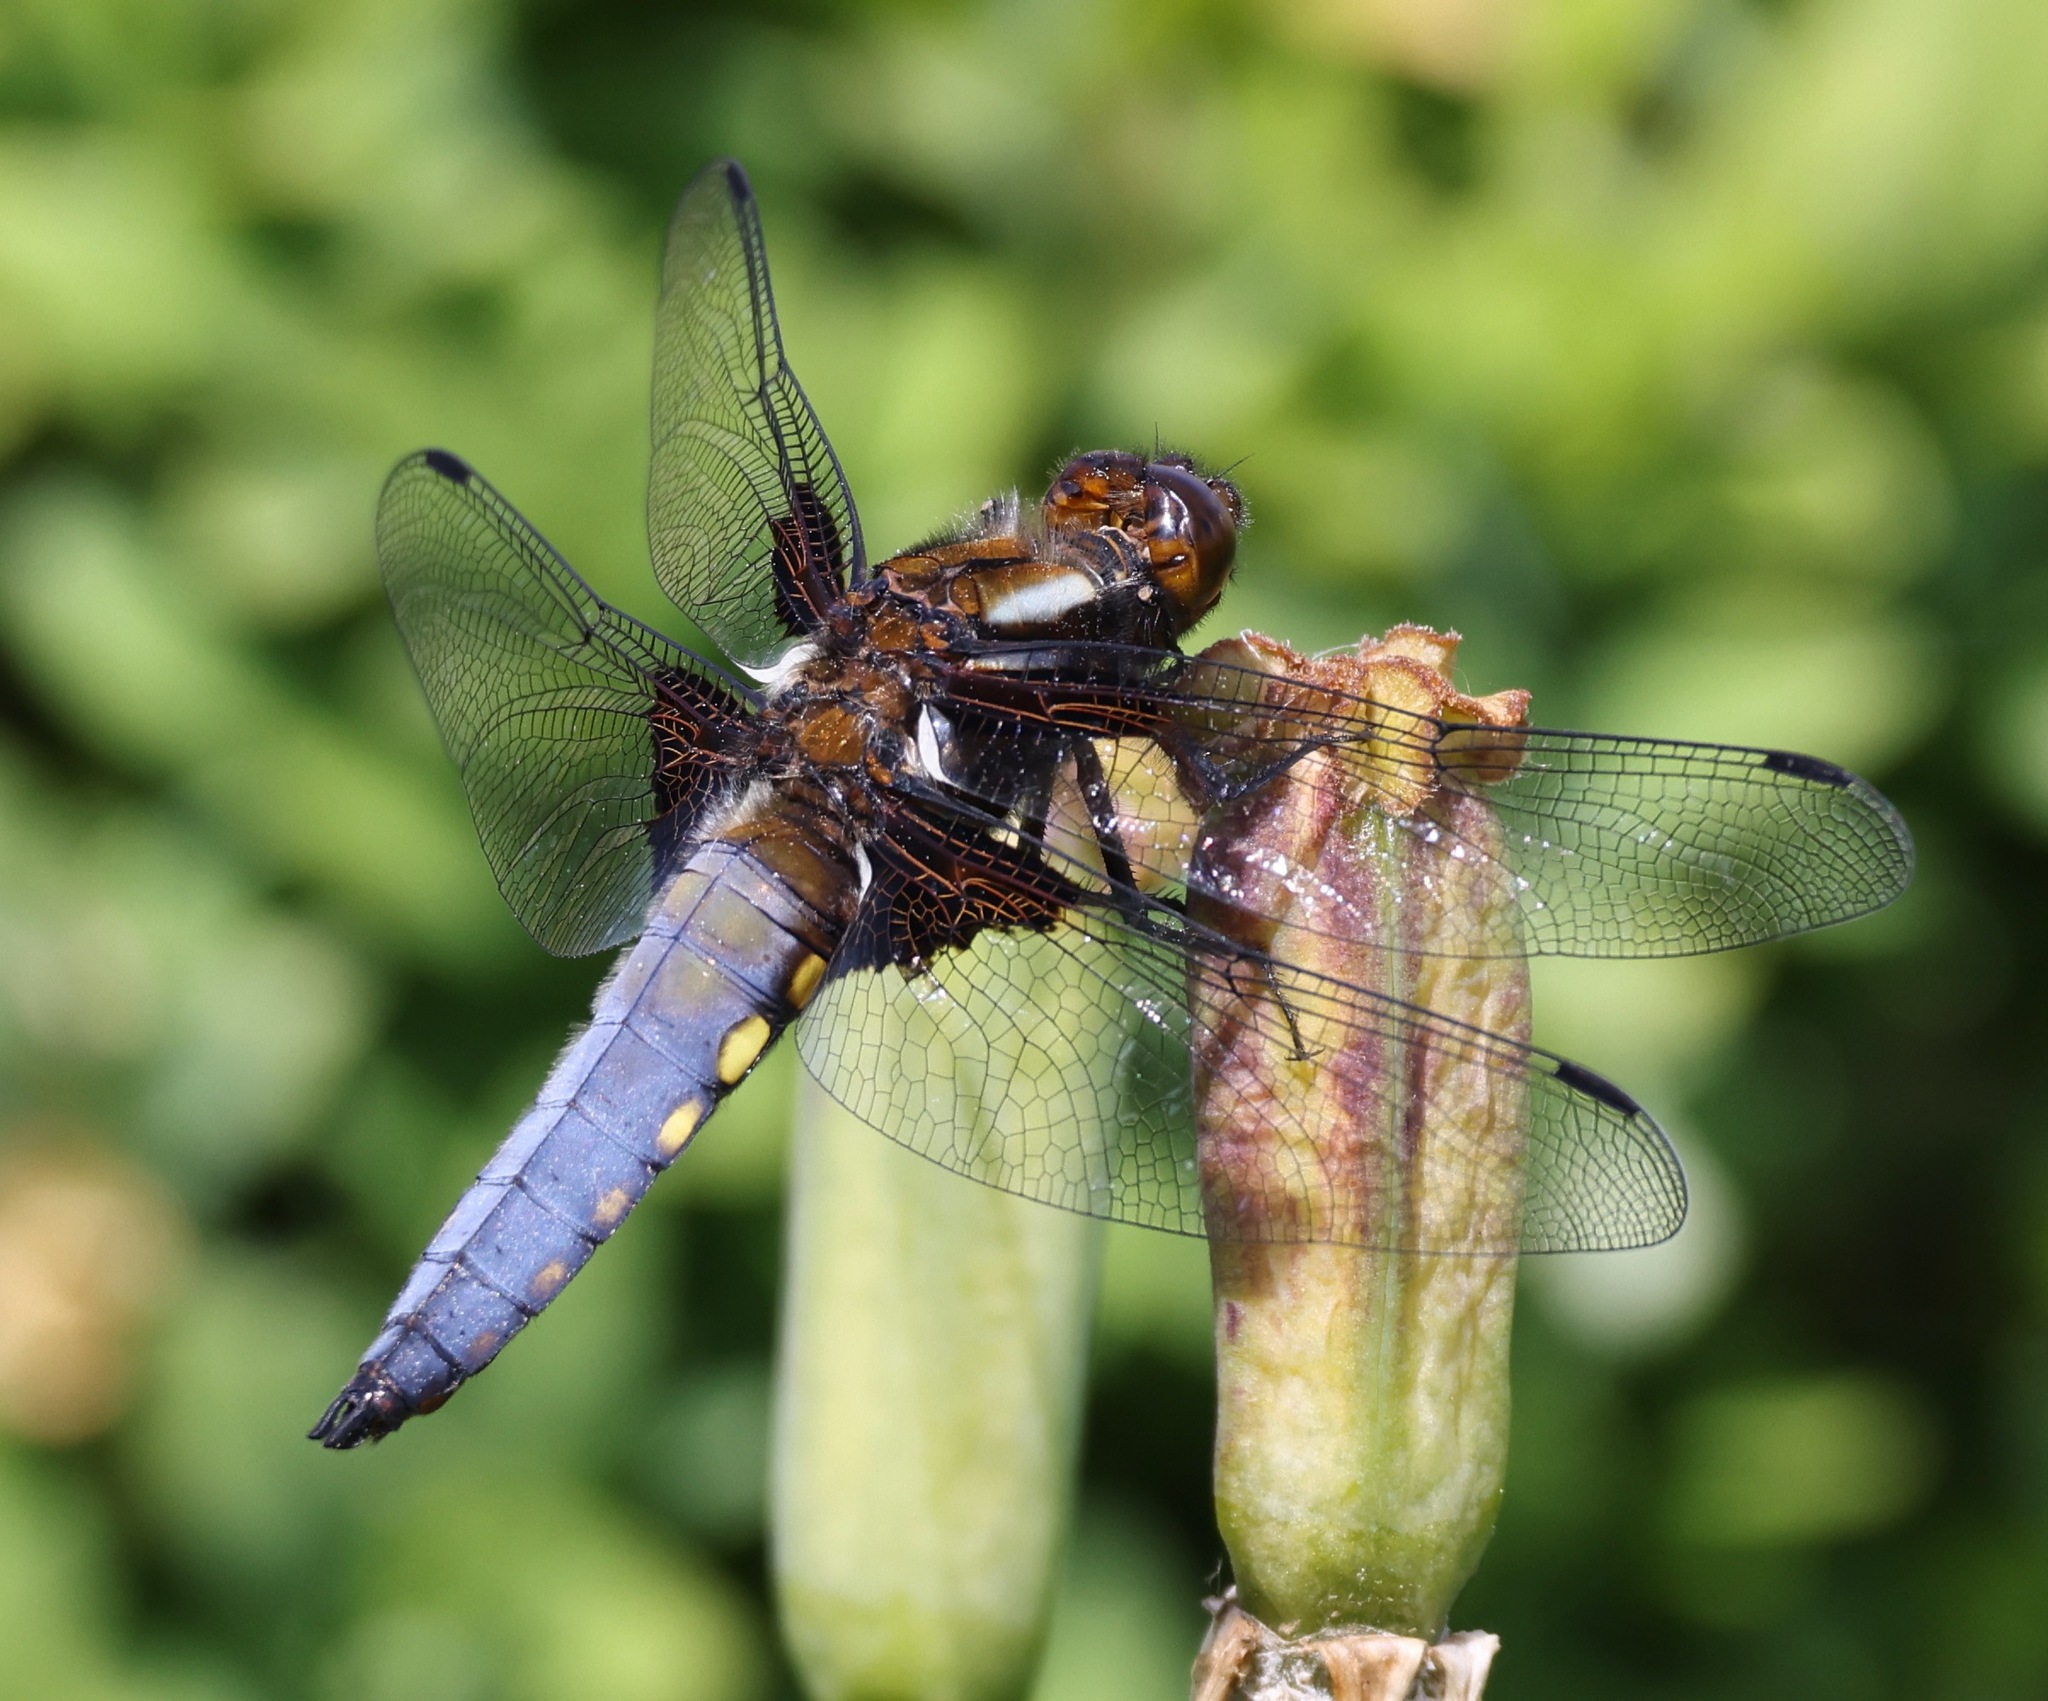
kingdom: Animalia
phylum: Arthropoda
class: Insecta
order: Odonata
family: Libellulidae
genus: Libellula
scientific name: Libellula depressa
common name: Broad-bodied chaser
